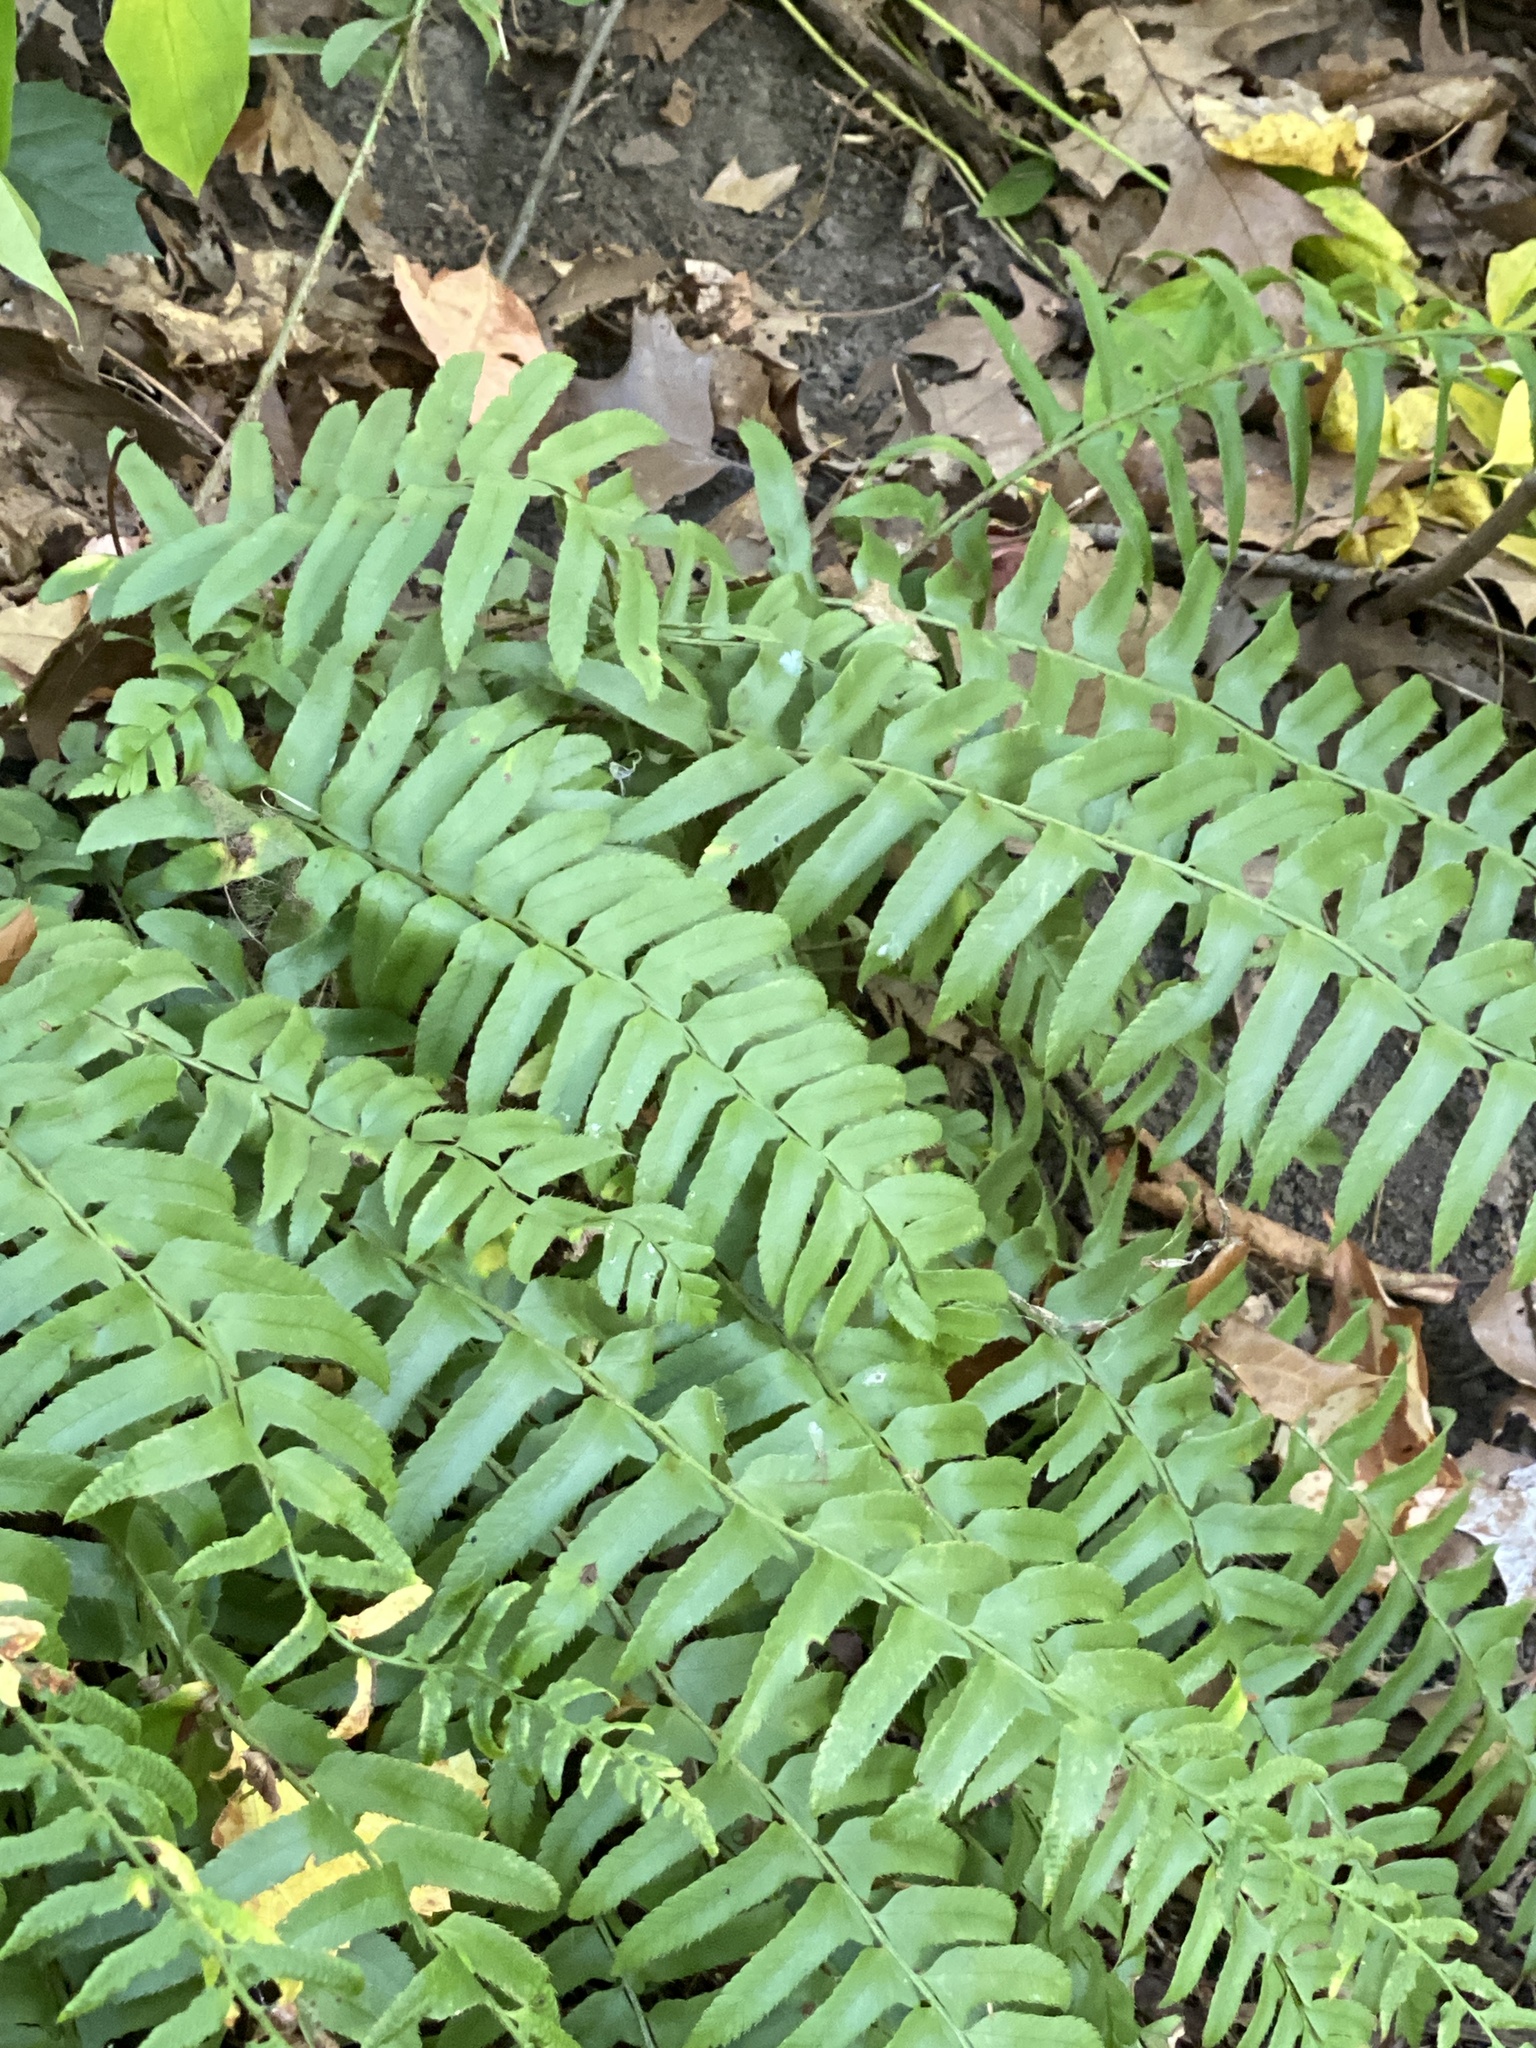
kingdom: Plantae
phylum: Tracheophyta
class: Polypodiopsida
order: Polypodiales
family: Dryopteridaceae
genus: Polystichum
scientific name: Polystichum acrostichoides
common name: Christmas fern
